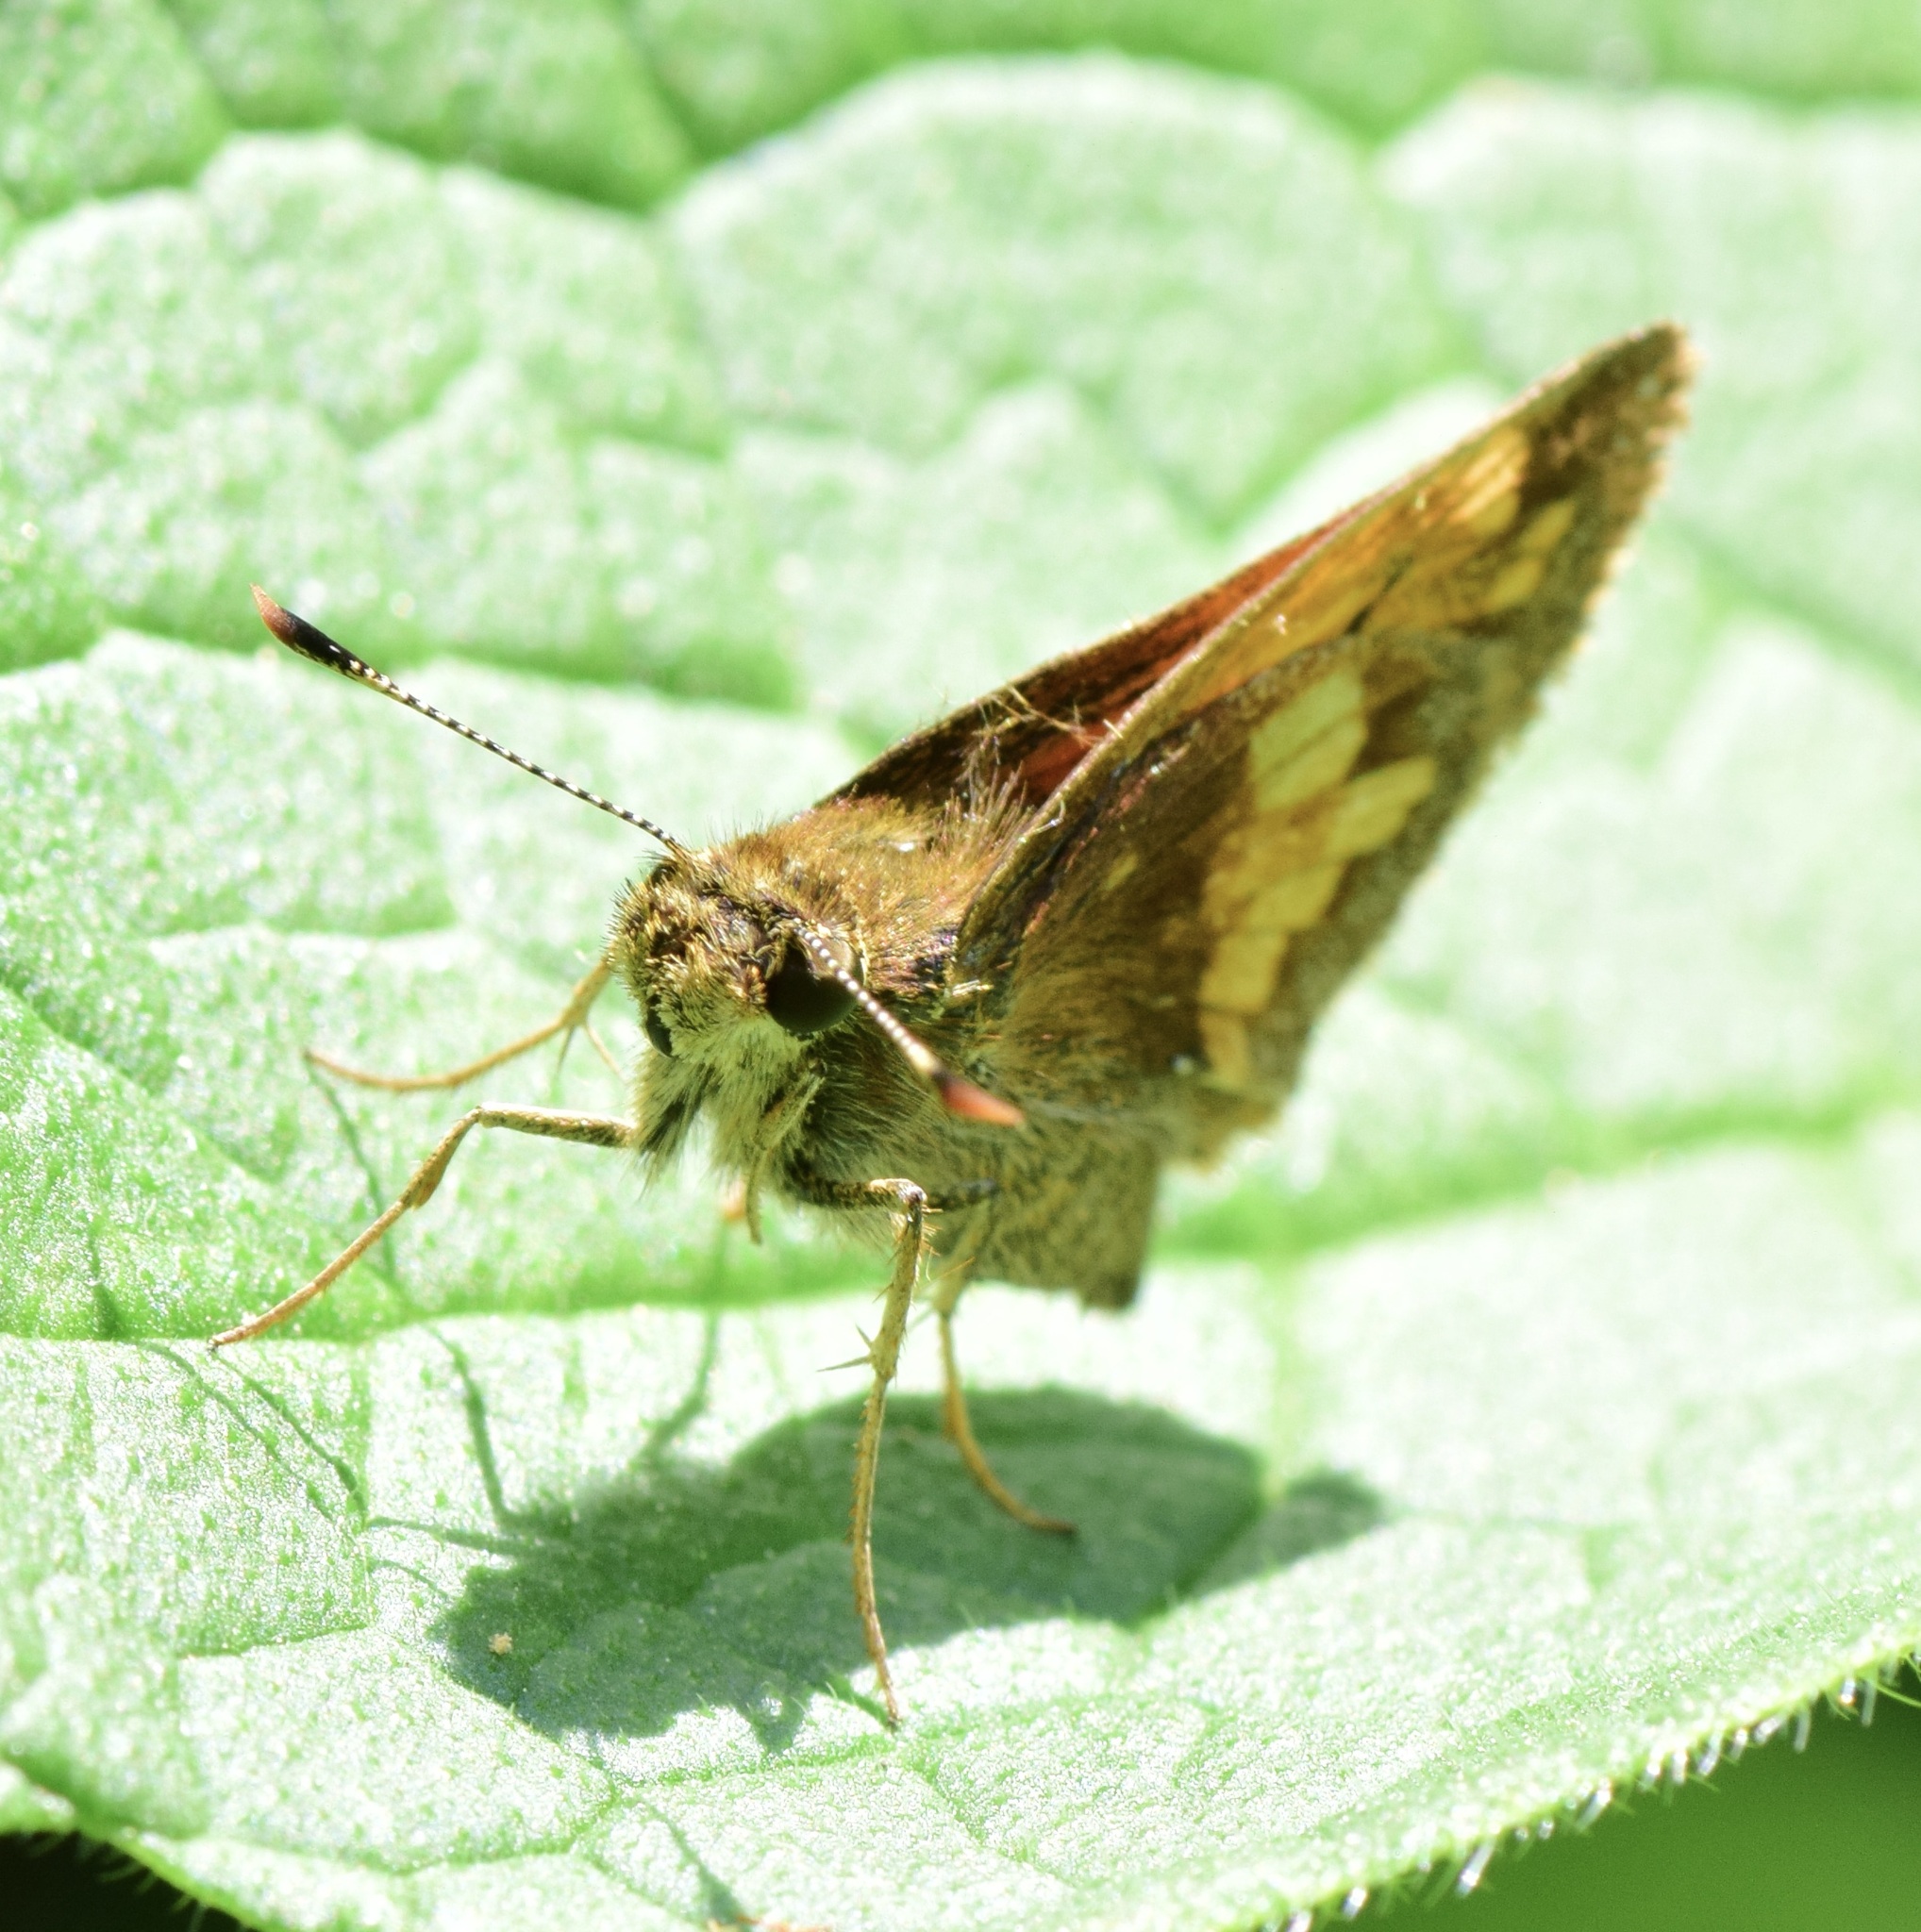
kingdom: Animalia
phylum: Arthropoda
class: Insecta
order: Lepidoptera
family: Hesperiidae
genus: Lon
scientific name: Lon hobomok
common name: Hobomok skipper
